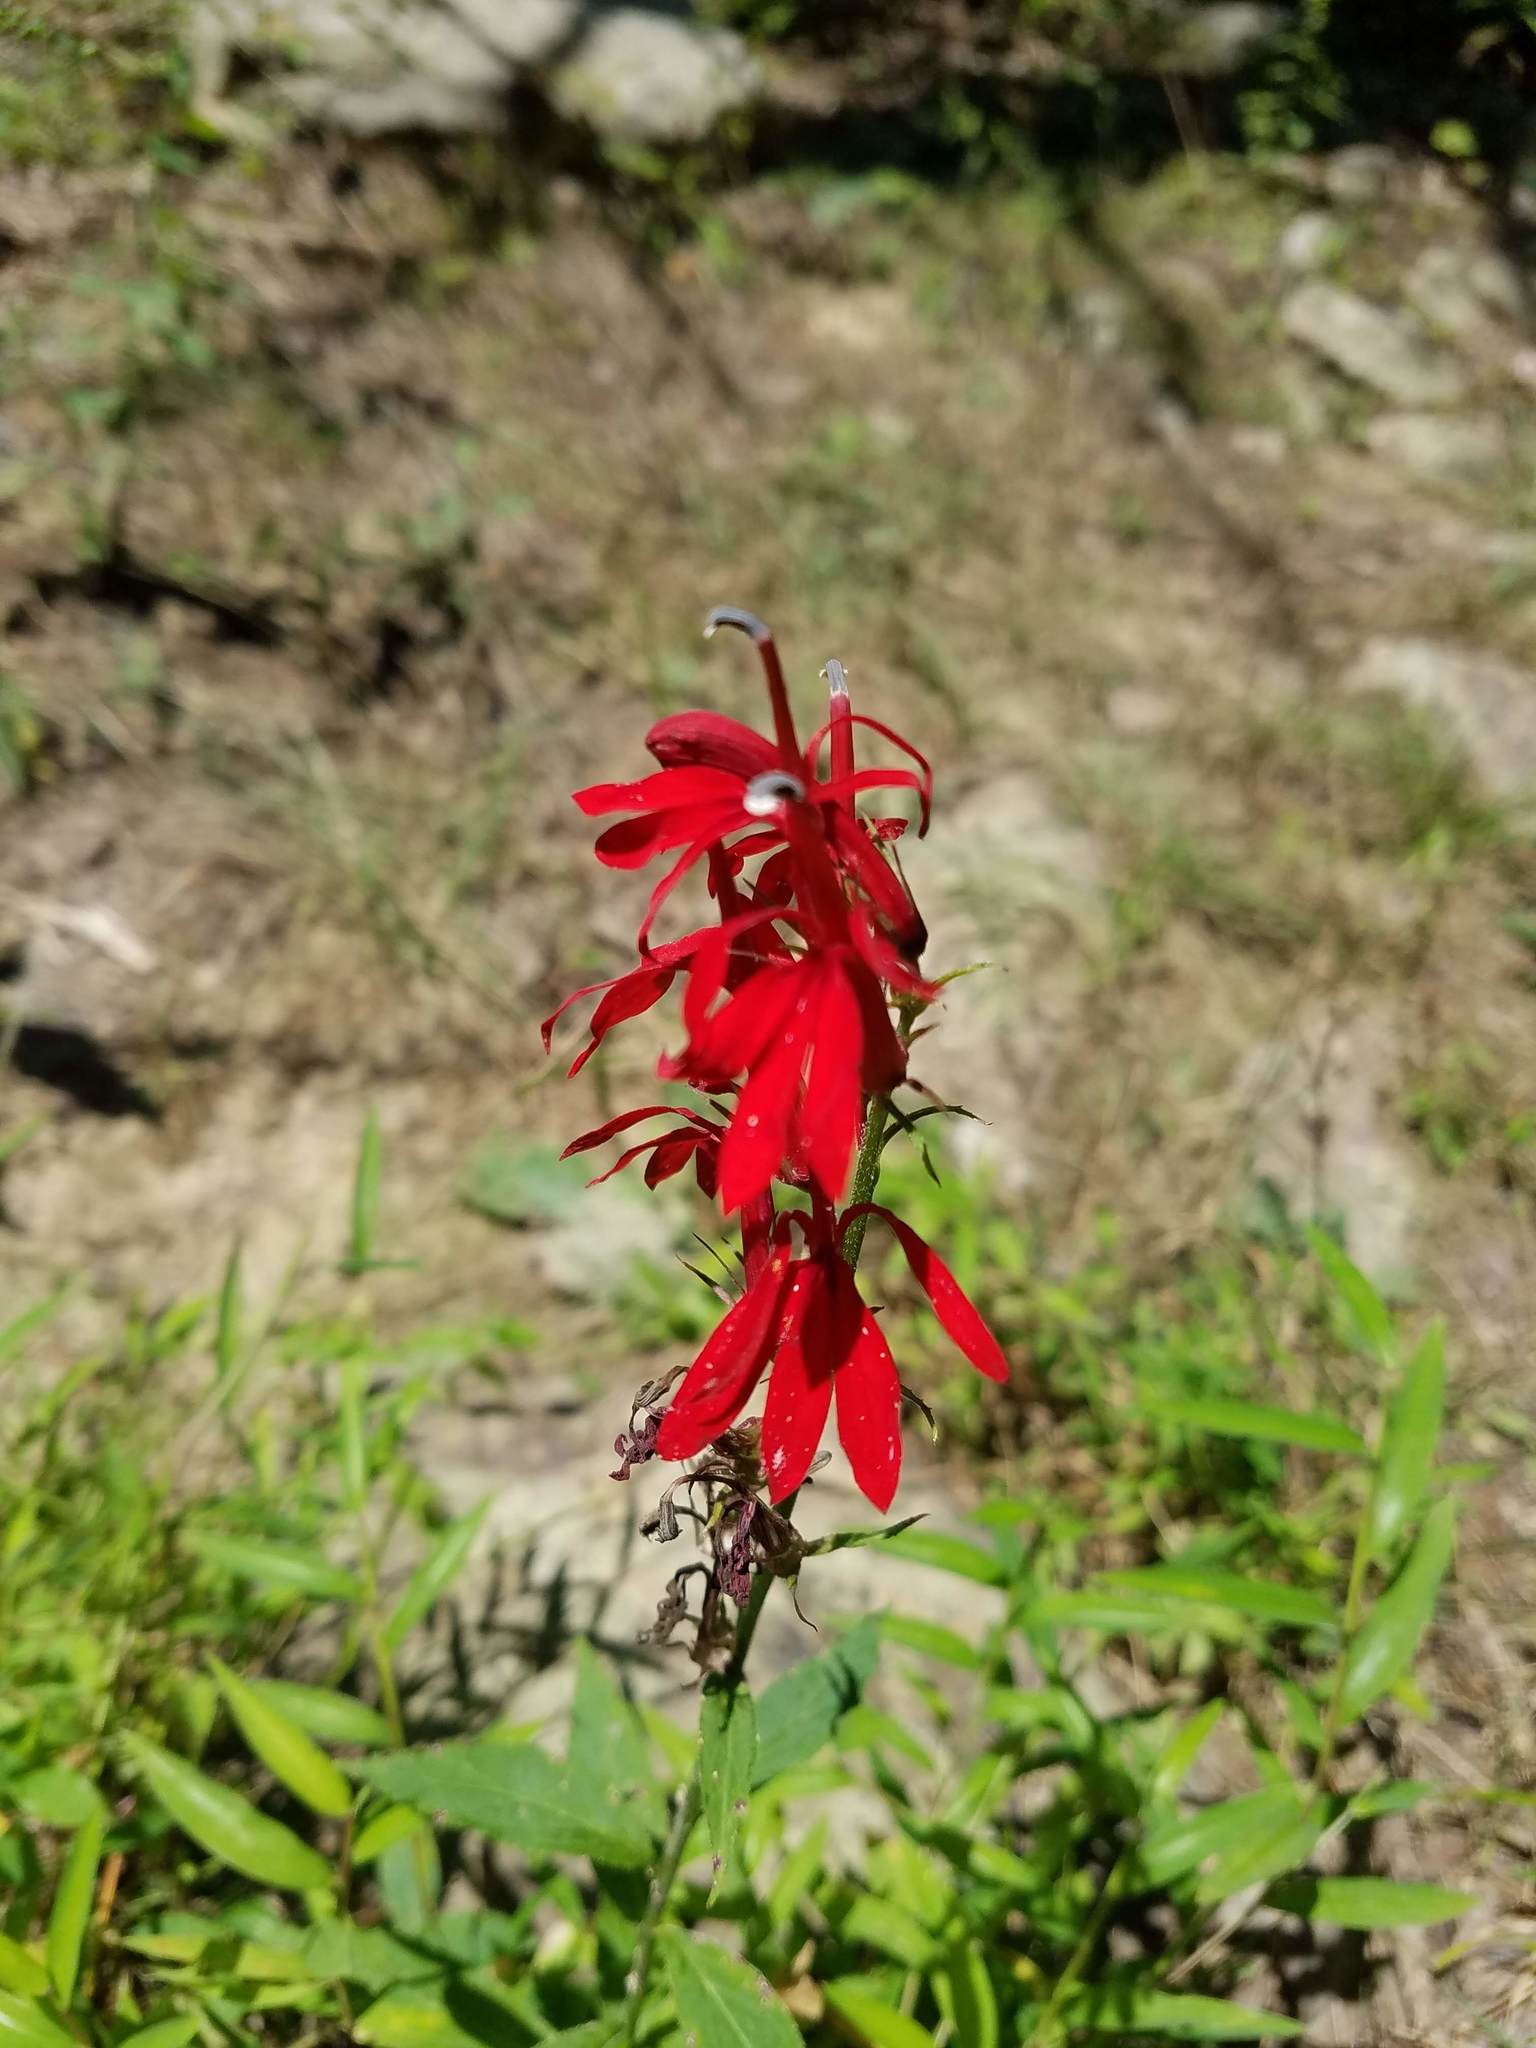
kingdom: Plantae
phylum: Tracheophyta
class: Magnoliopsida
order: Asterales
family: Campanulaceae
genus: Lobelia
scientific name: Lobelia cardinalis
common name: Cardinal flower
